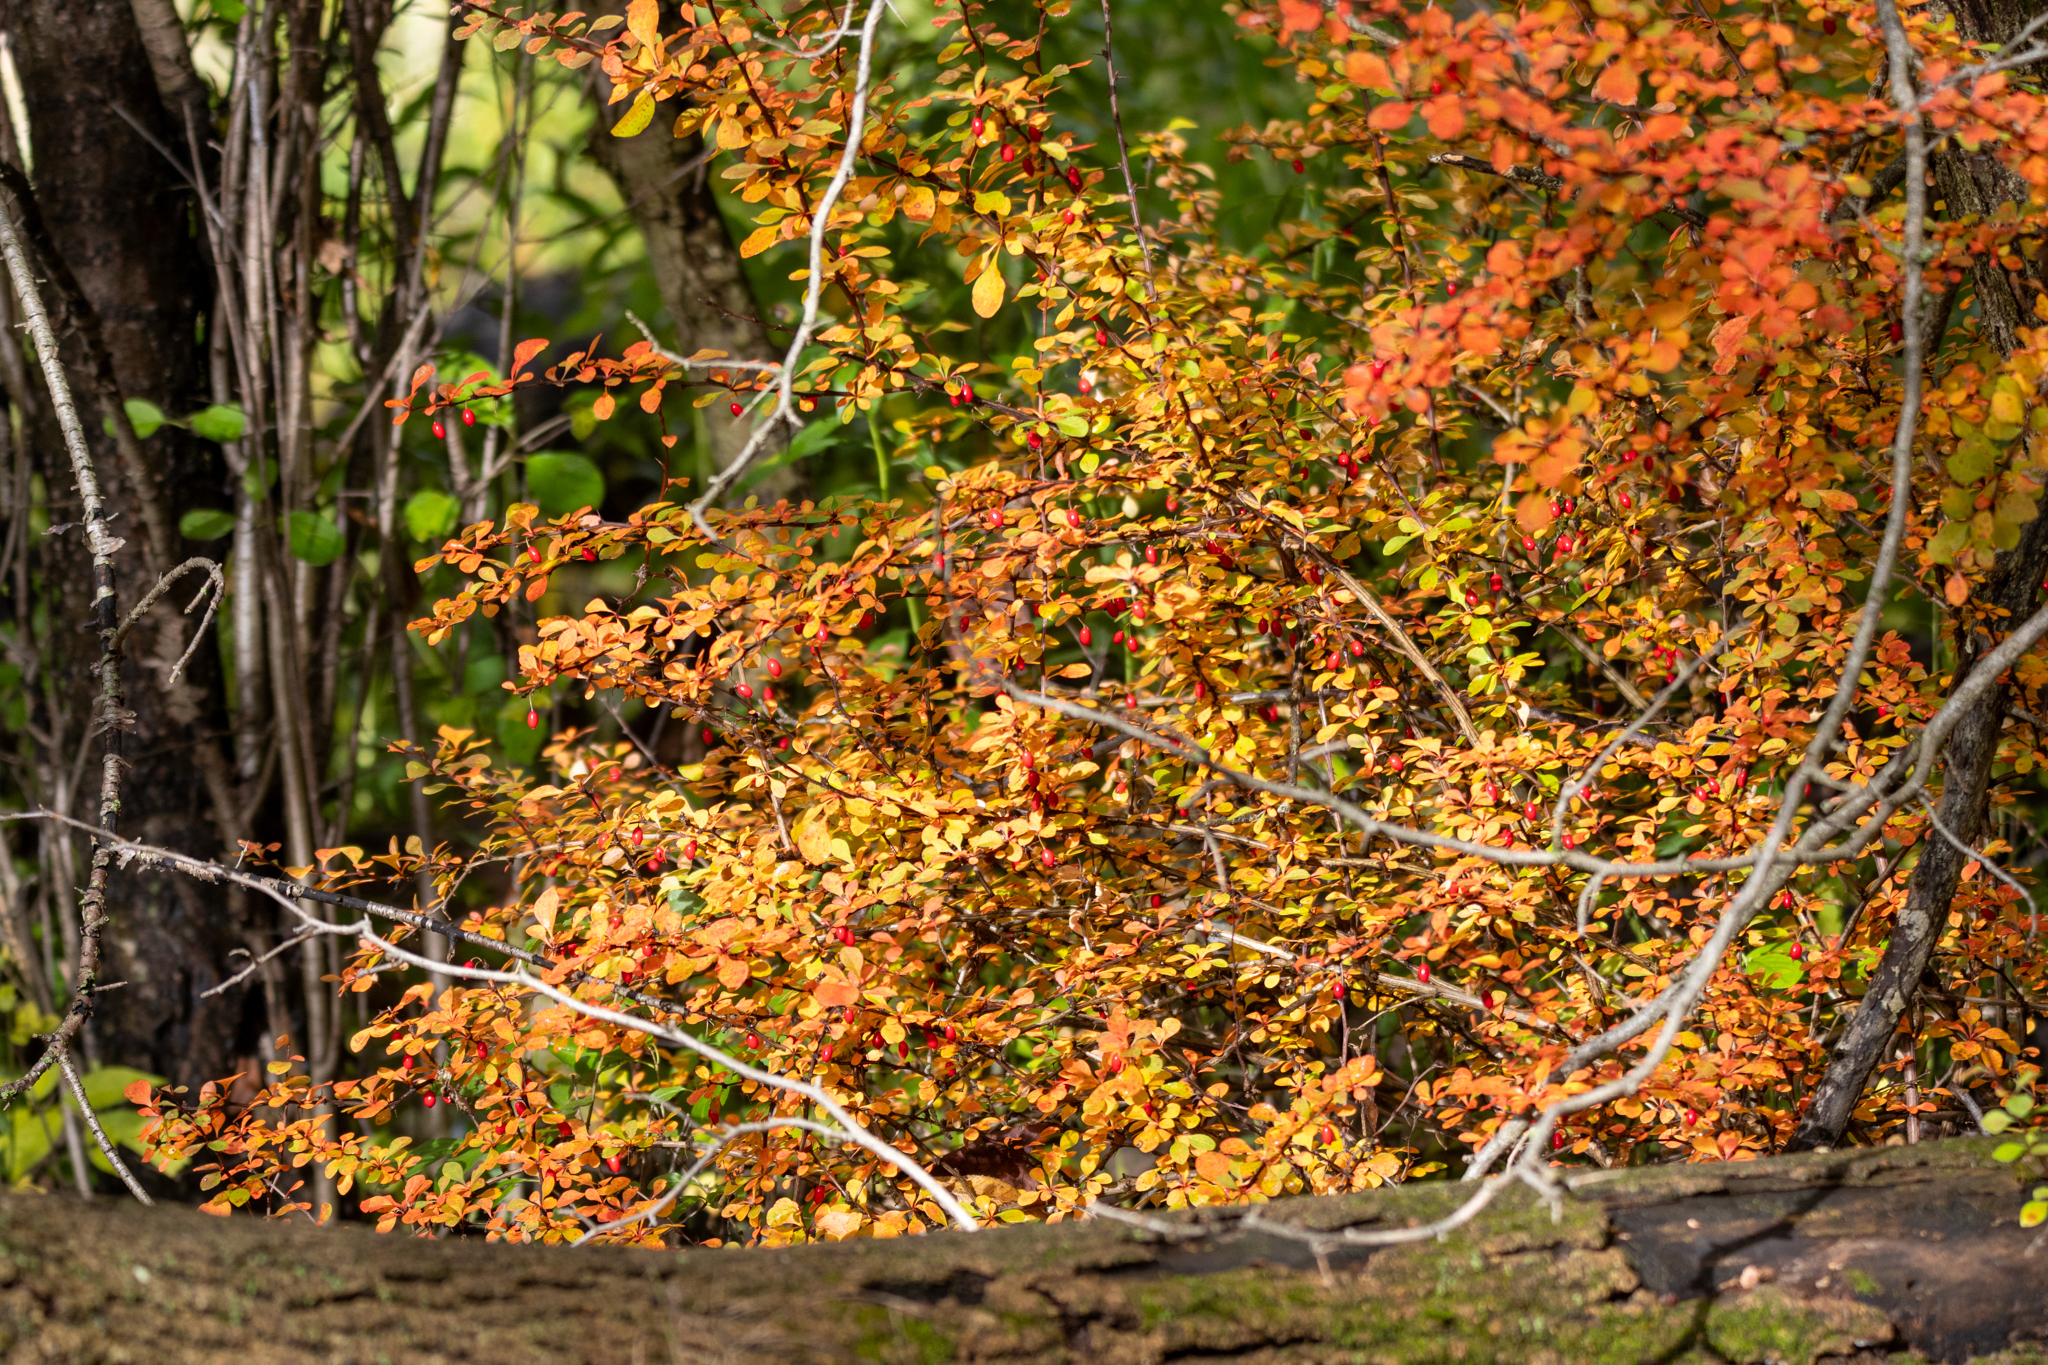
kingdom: Plantae
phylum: Tracheophyta
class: Magnoliopsida
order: Ranunculales
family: Berberidaceae
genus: Berberis
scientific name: Berberis thunbergii
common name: Japanese barberry
